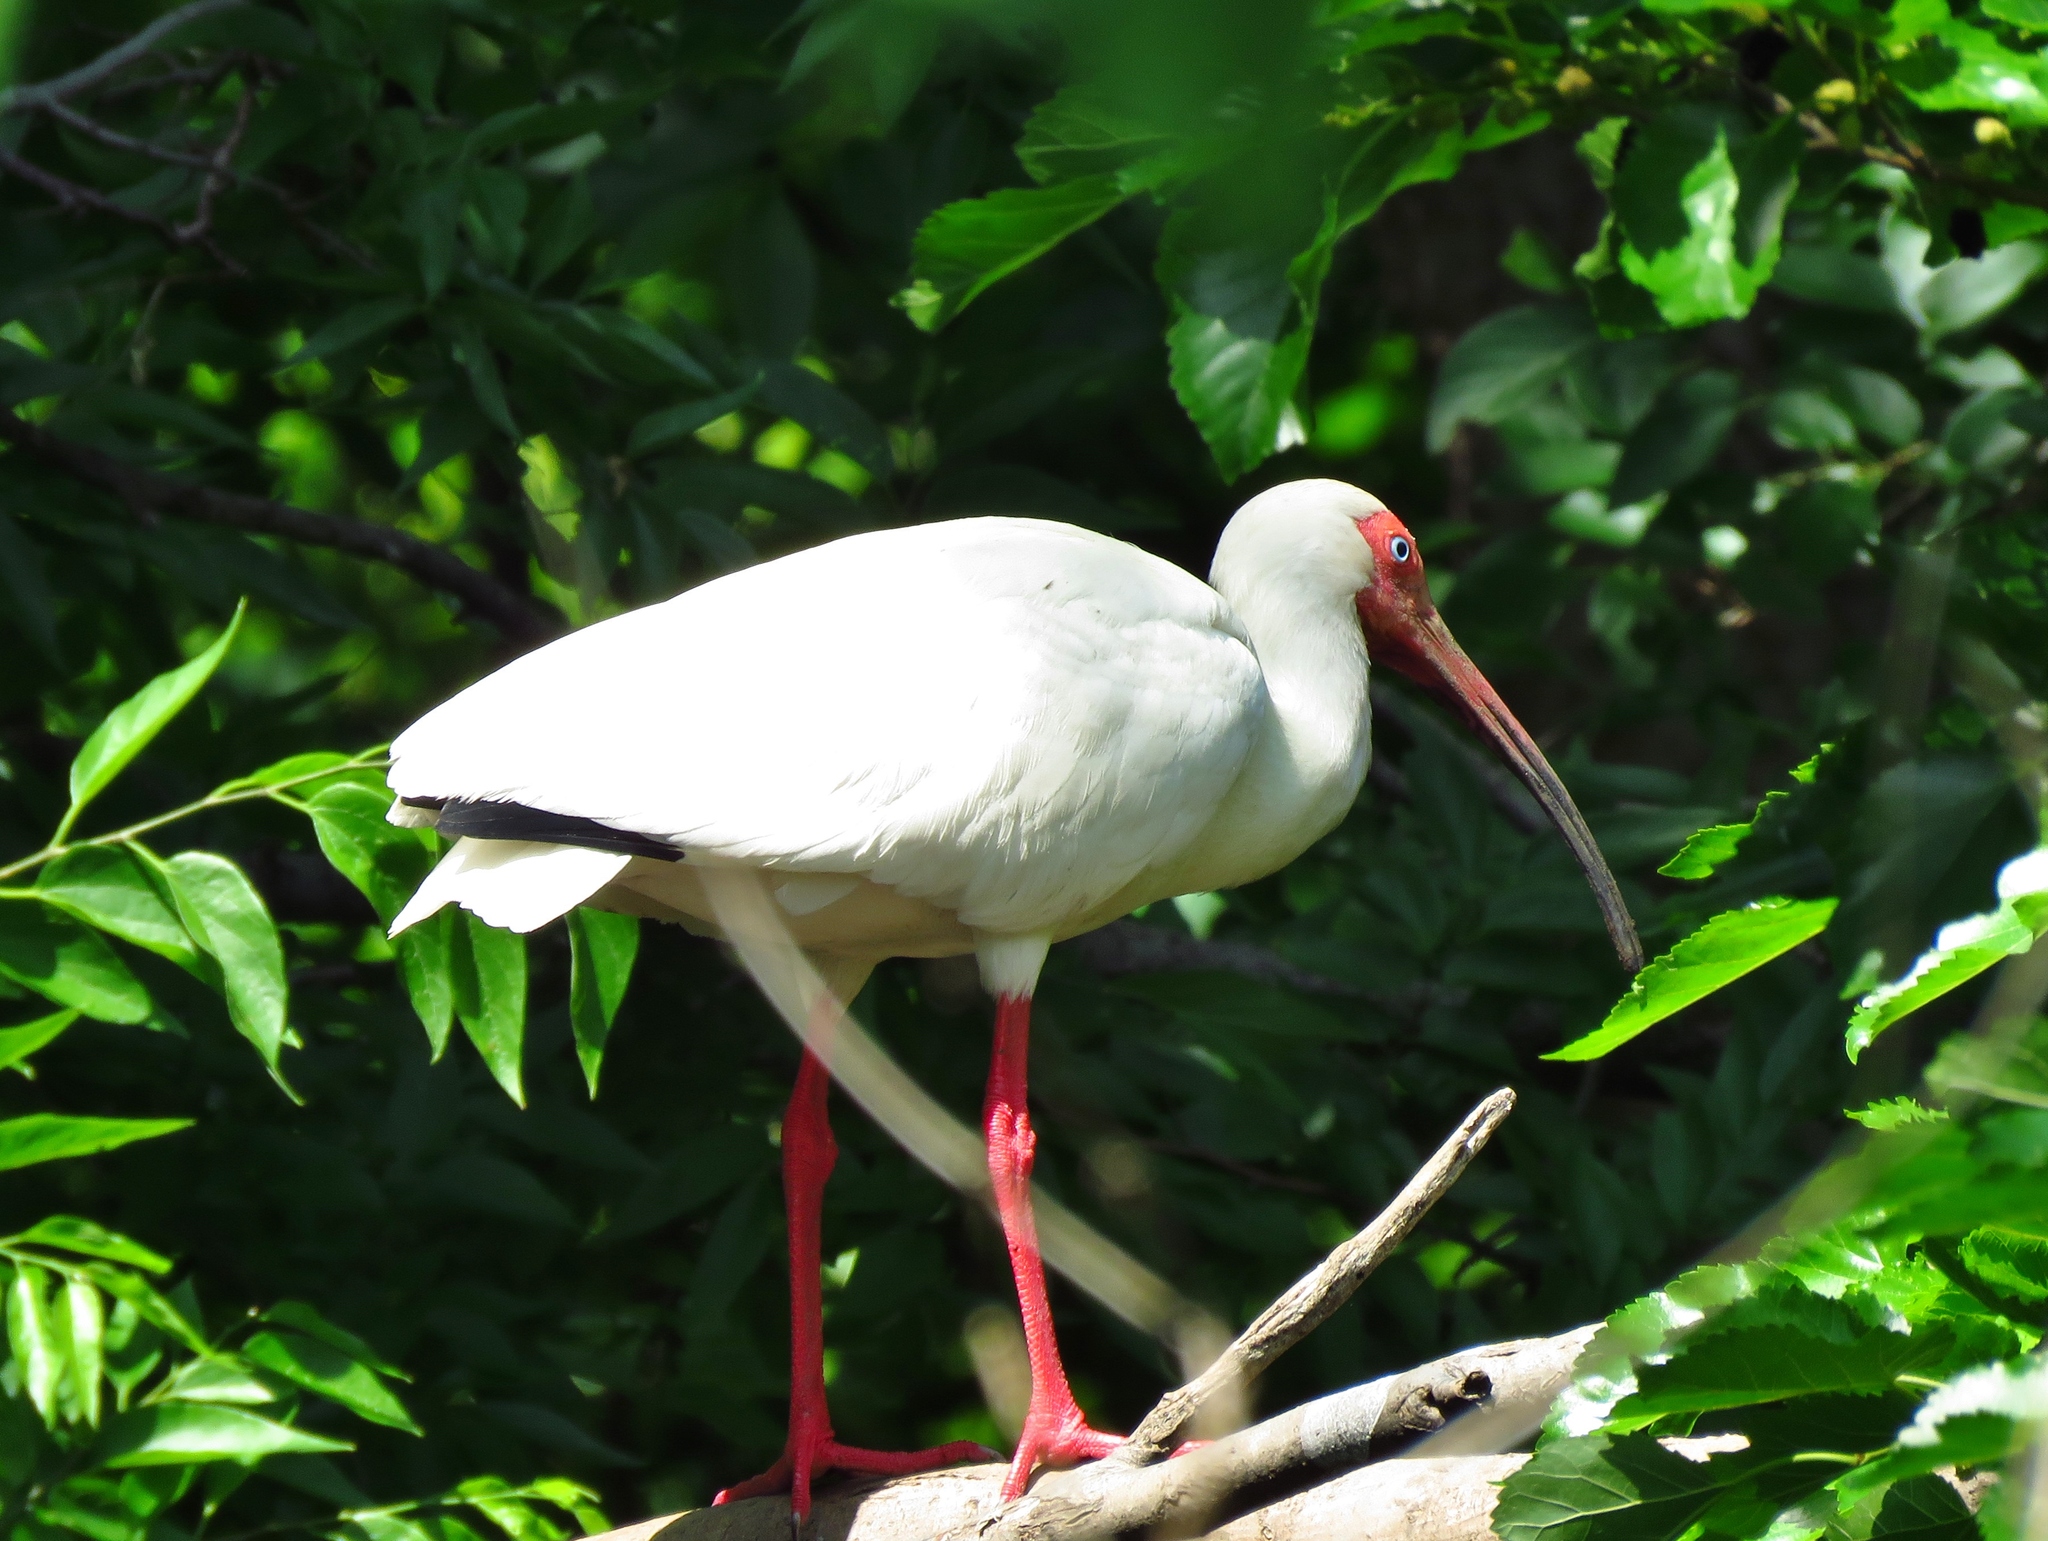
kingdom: Animalia
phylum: Chordata
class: Aves
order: Pelecaniformes
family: Threskiornithidae
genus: Eudocimus
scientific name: Eudocimus albus
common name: White ibis
